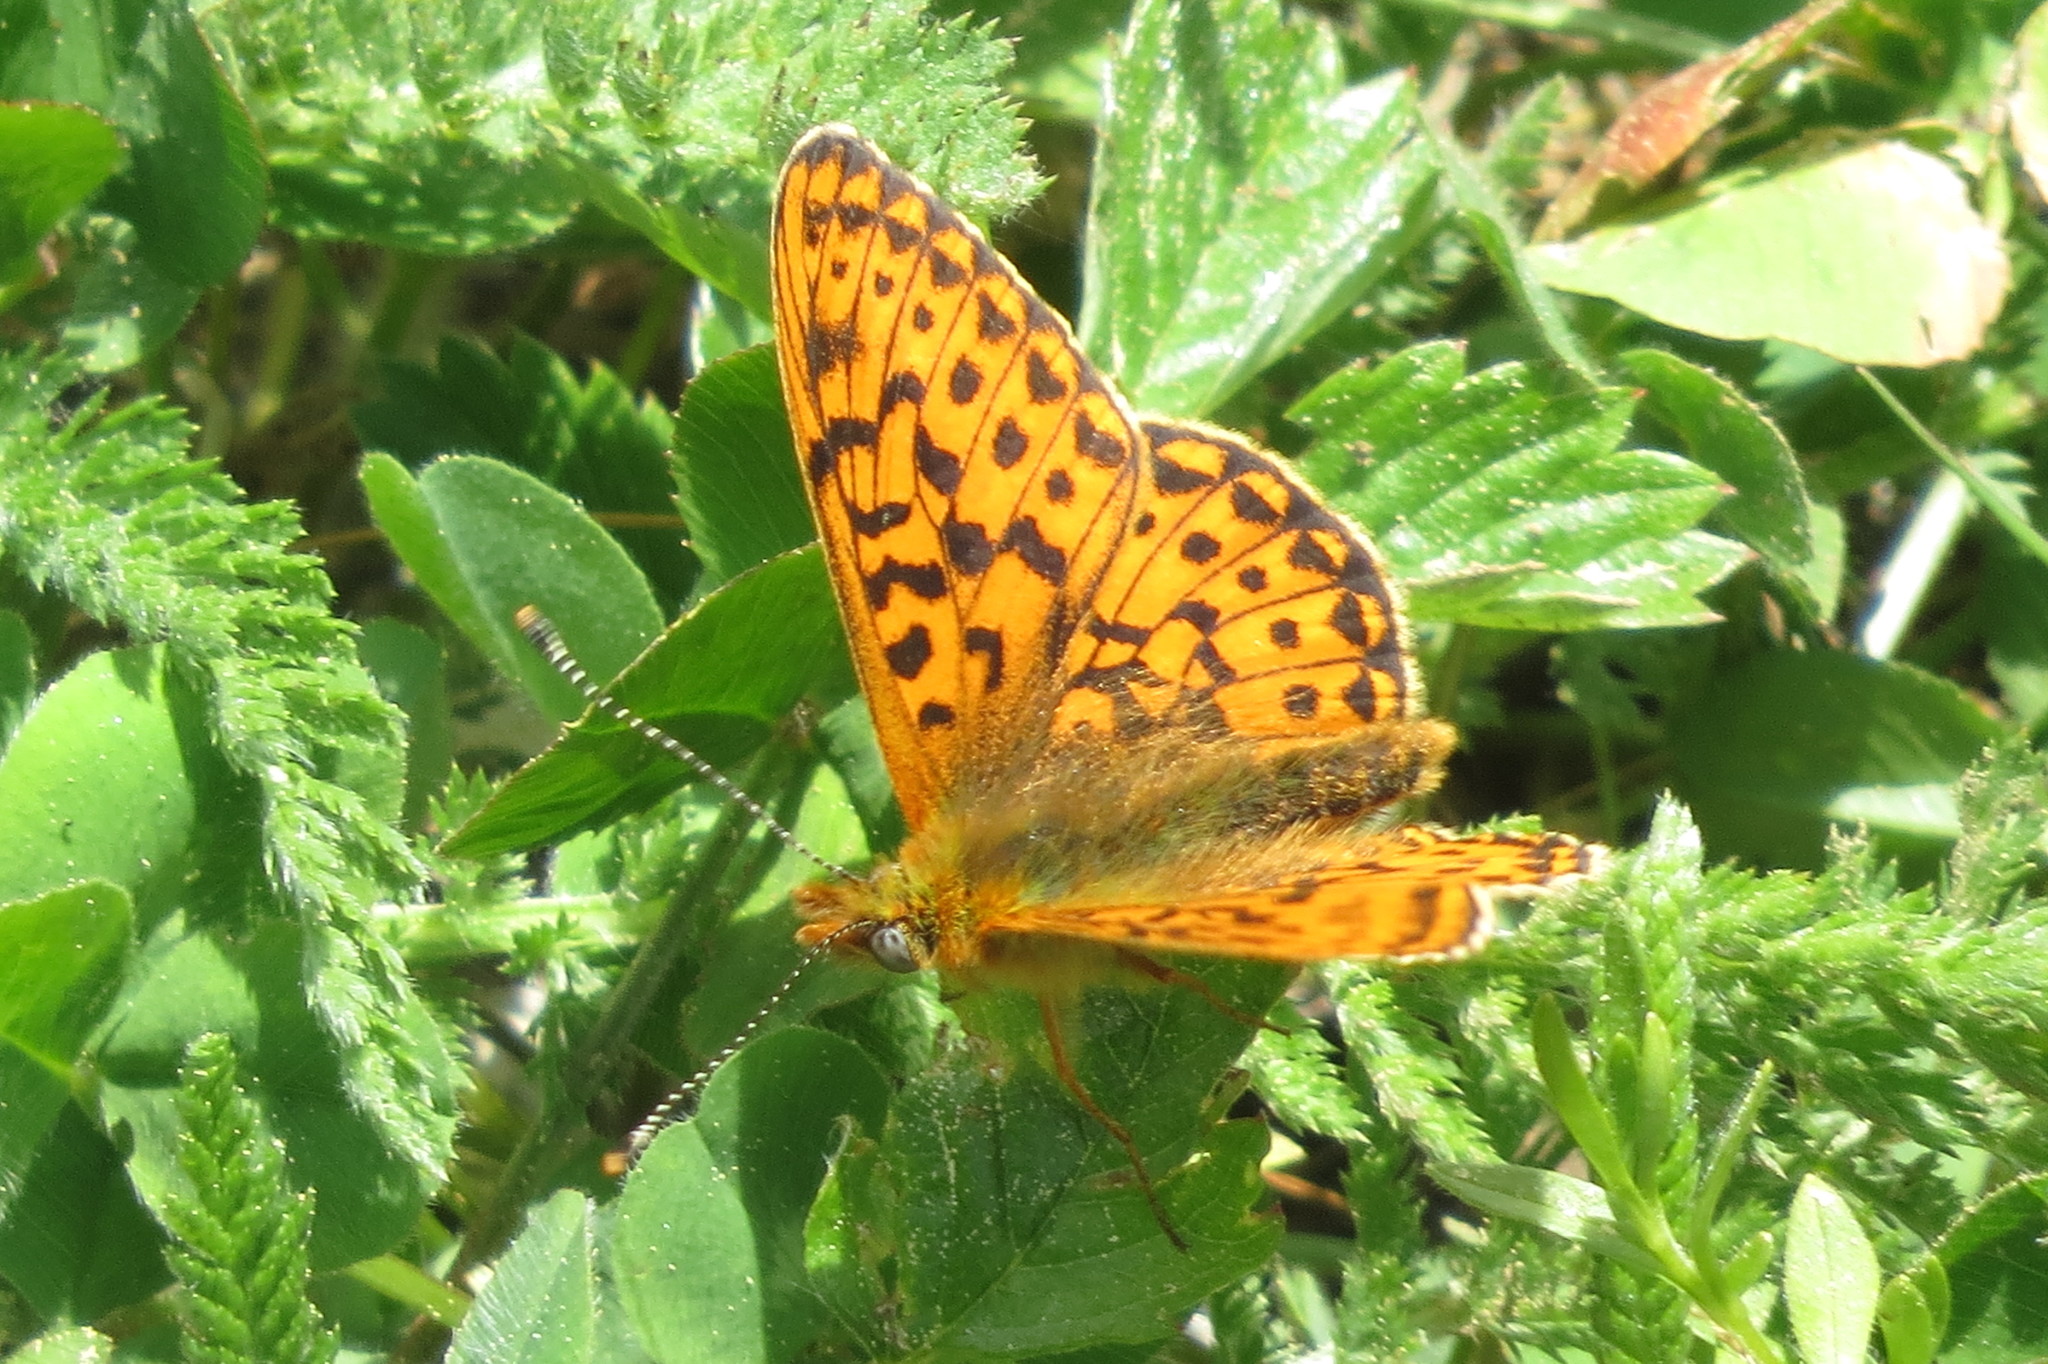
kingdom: Animalia
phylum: Arthropoda
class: Insecta
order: Lepidoptera
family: Nymphalidae
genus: Clossiana
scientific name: Clossiana euphrosyne
